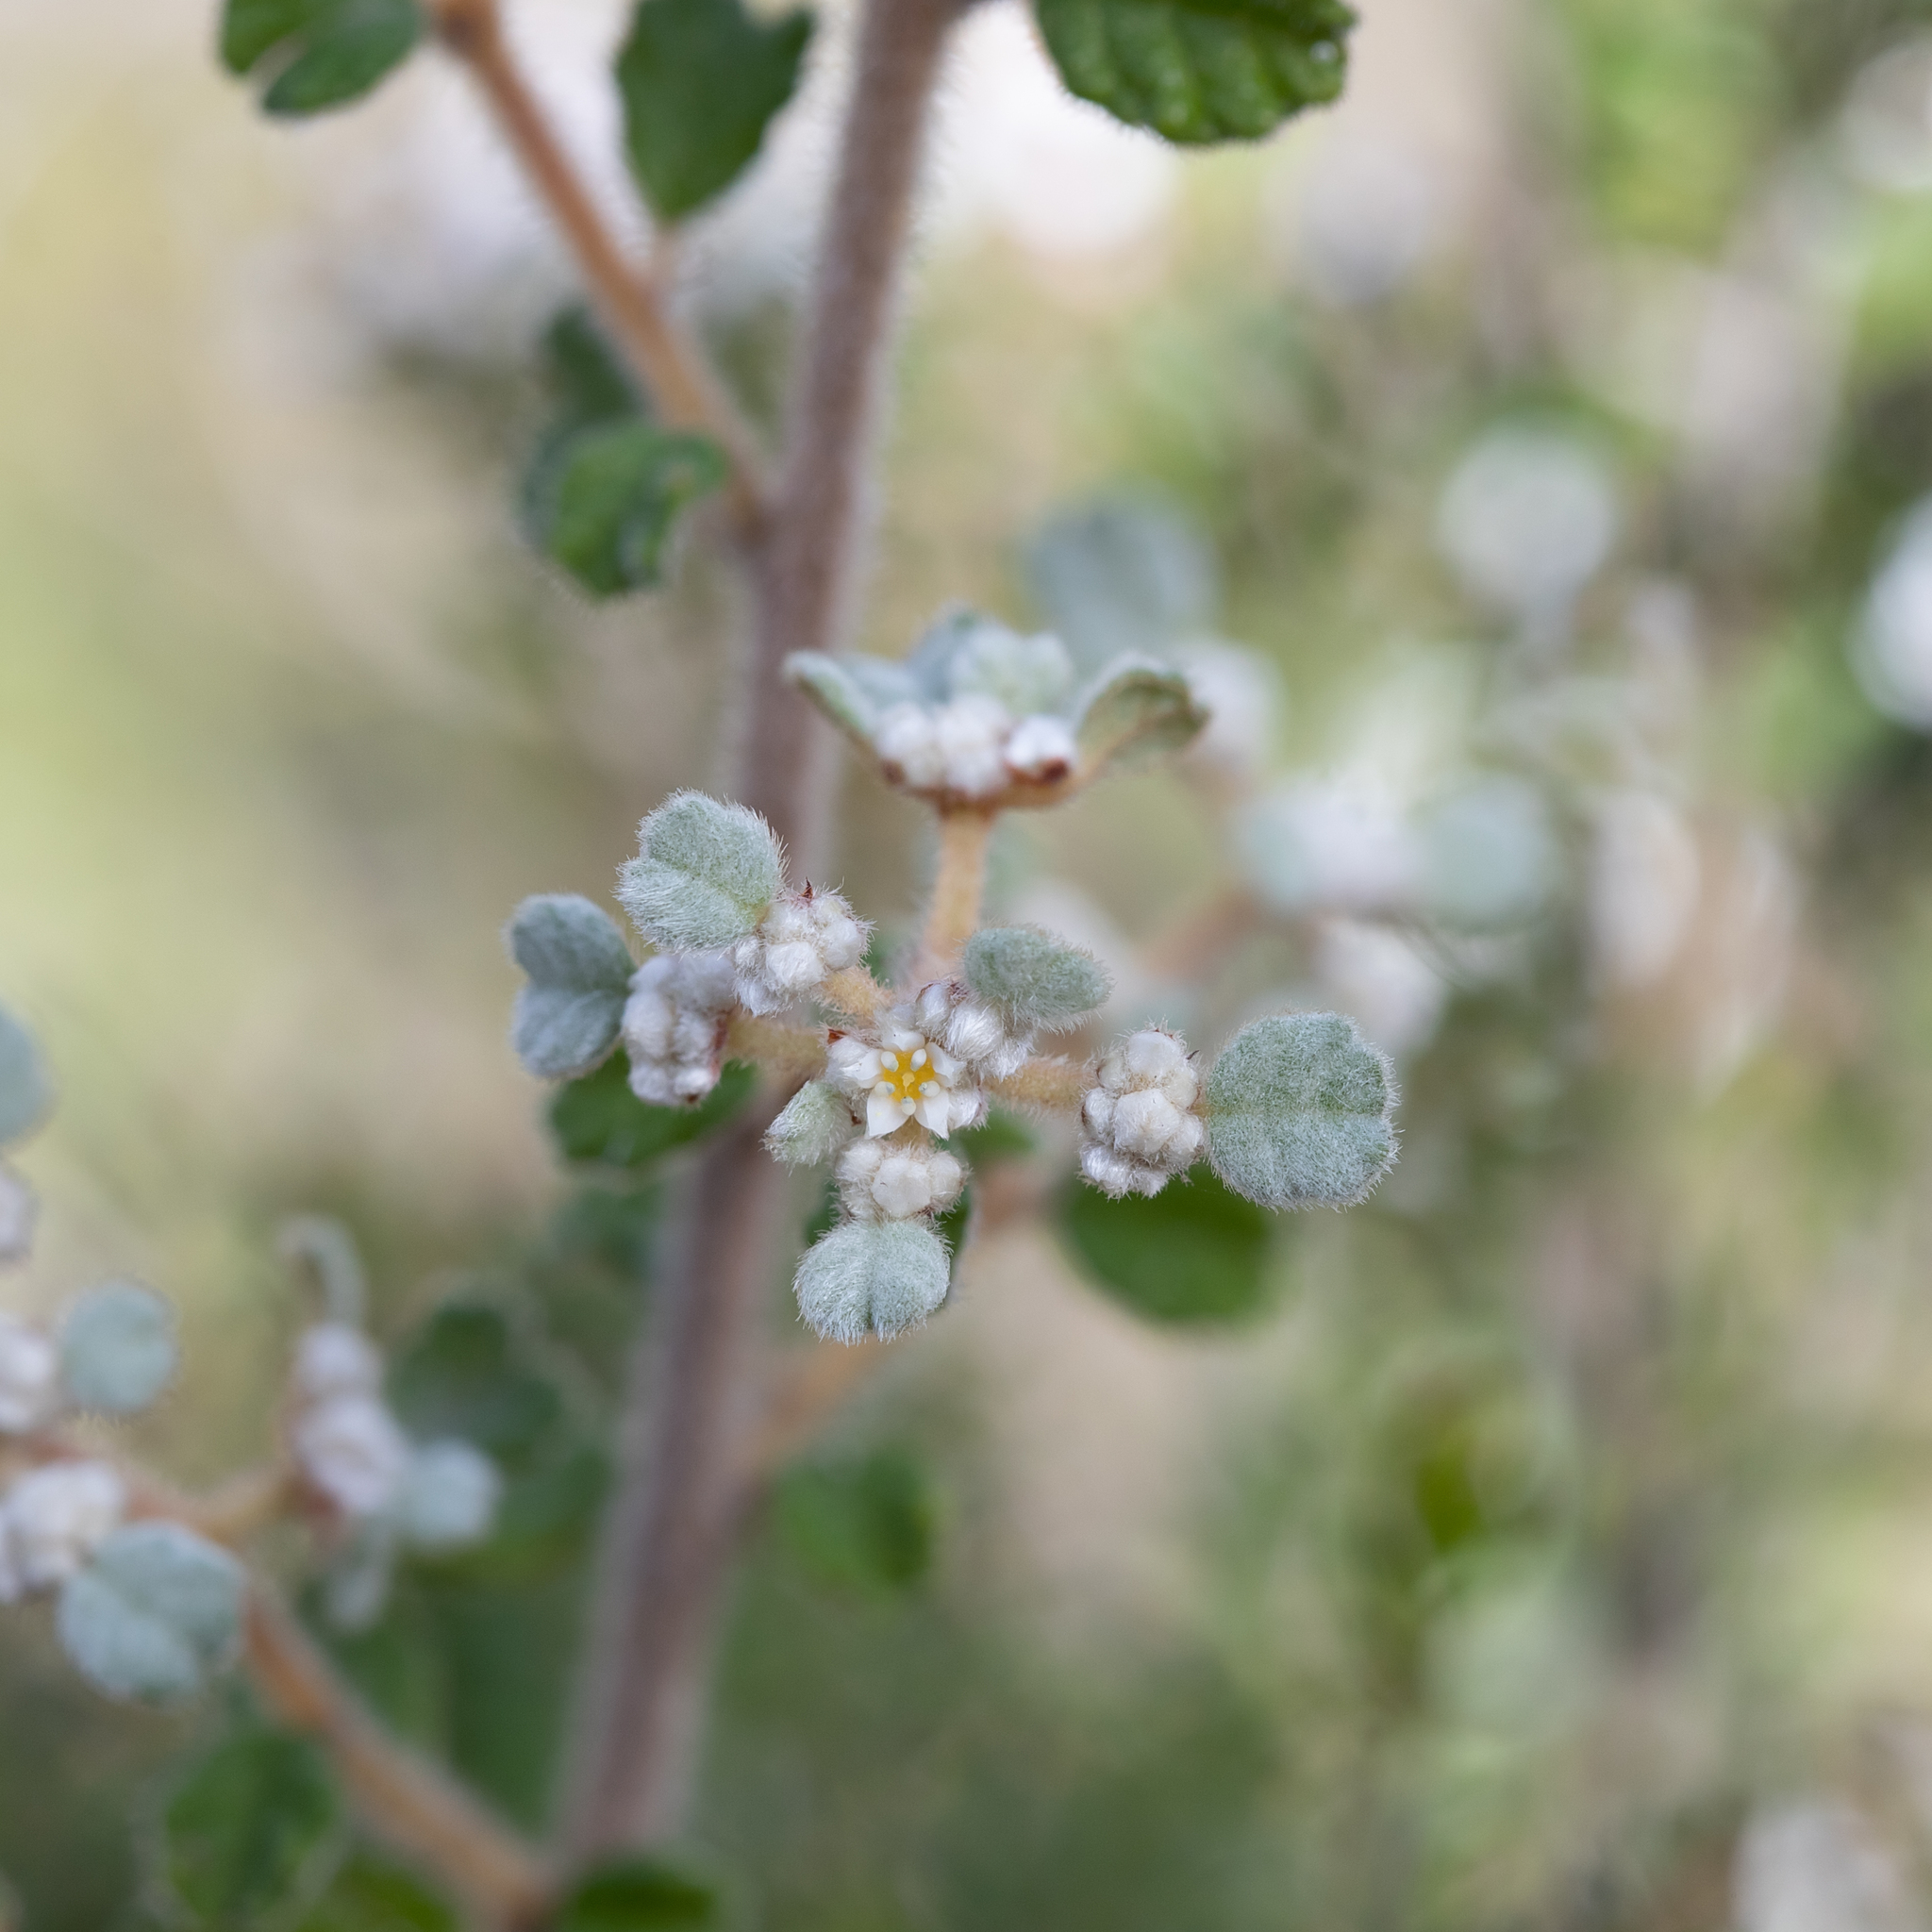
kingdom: Plantae
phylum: Tracheophyta
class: Magnoliopsida
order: Rosales
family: Rhamnaceae
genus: Spyridium
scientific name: Spyridium parvifolium
